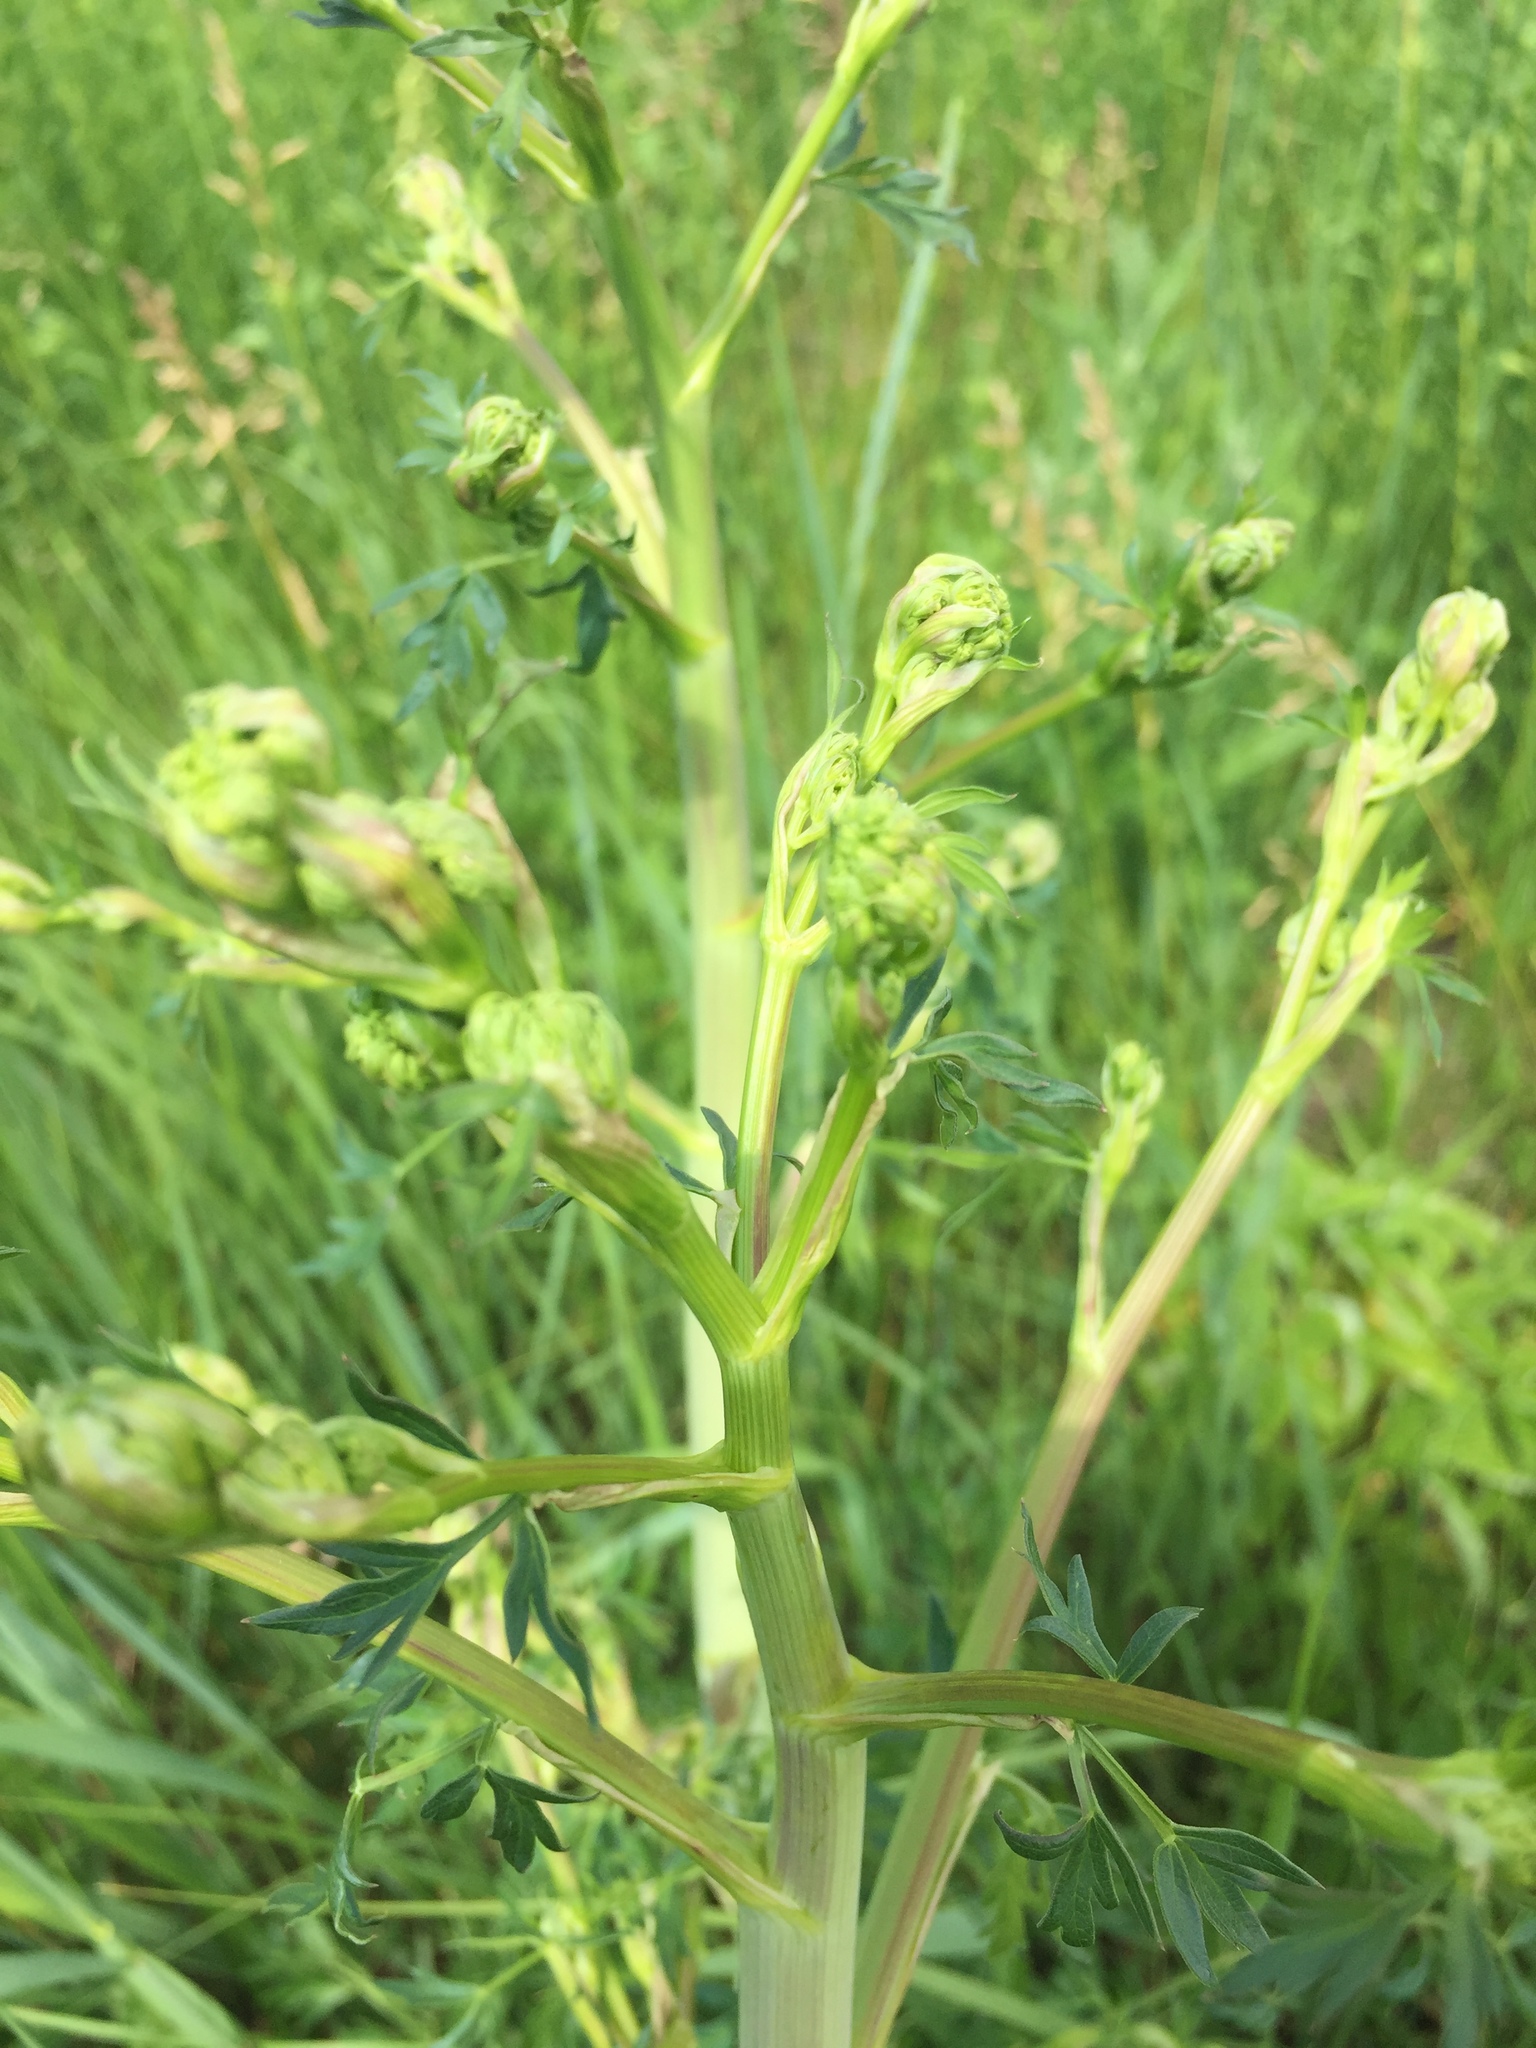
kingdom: Plantae
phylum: Tracheophyta
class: Magnoliopsida
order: Apiales
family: Apiaceae
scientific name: Apiaceae
